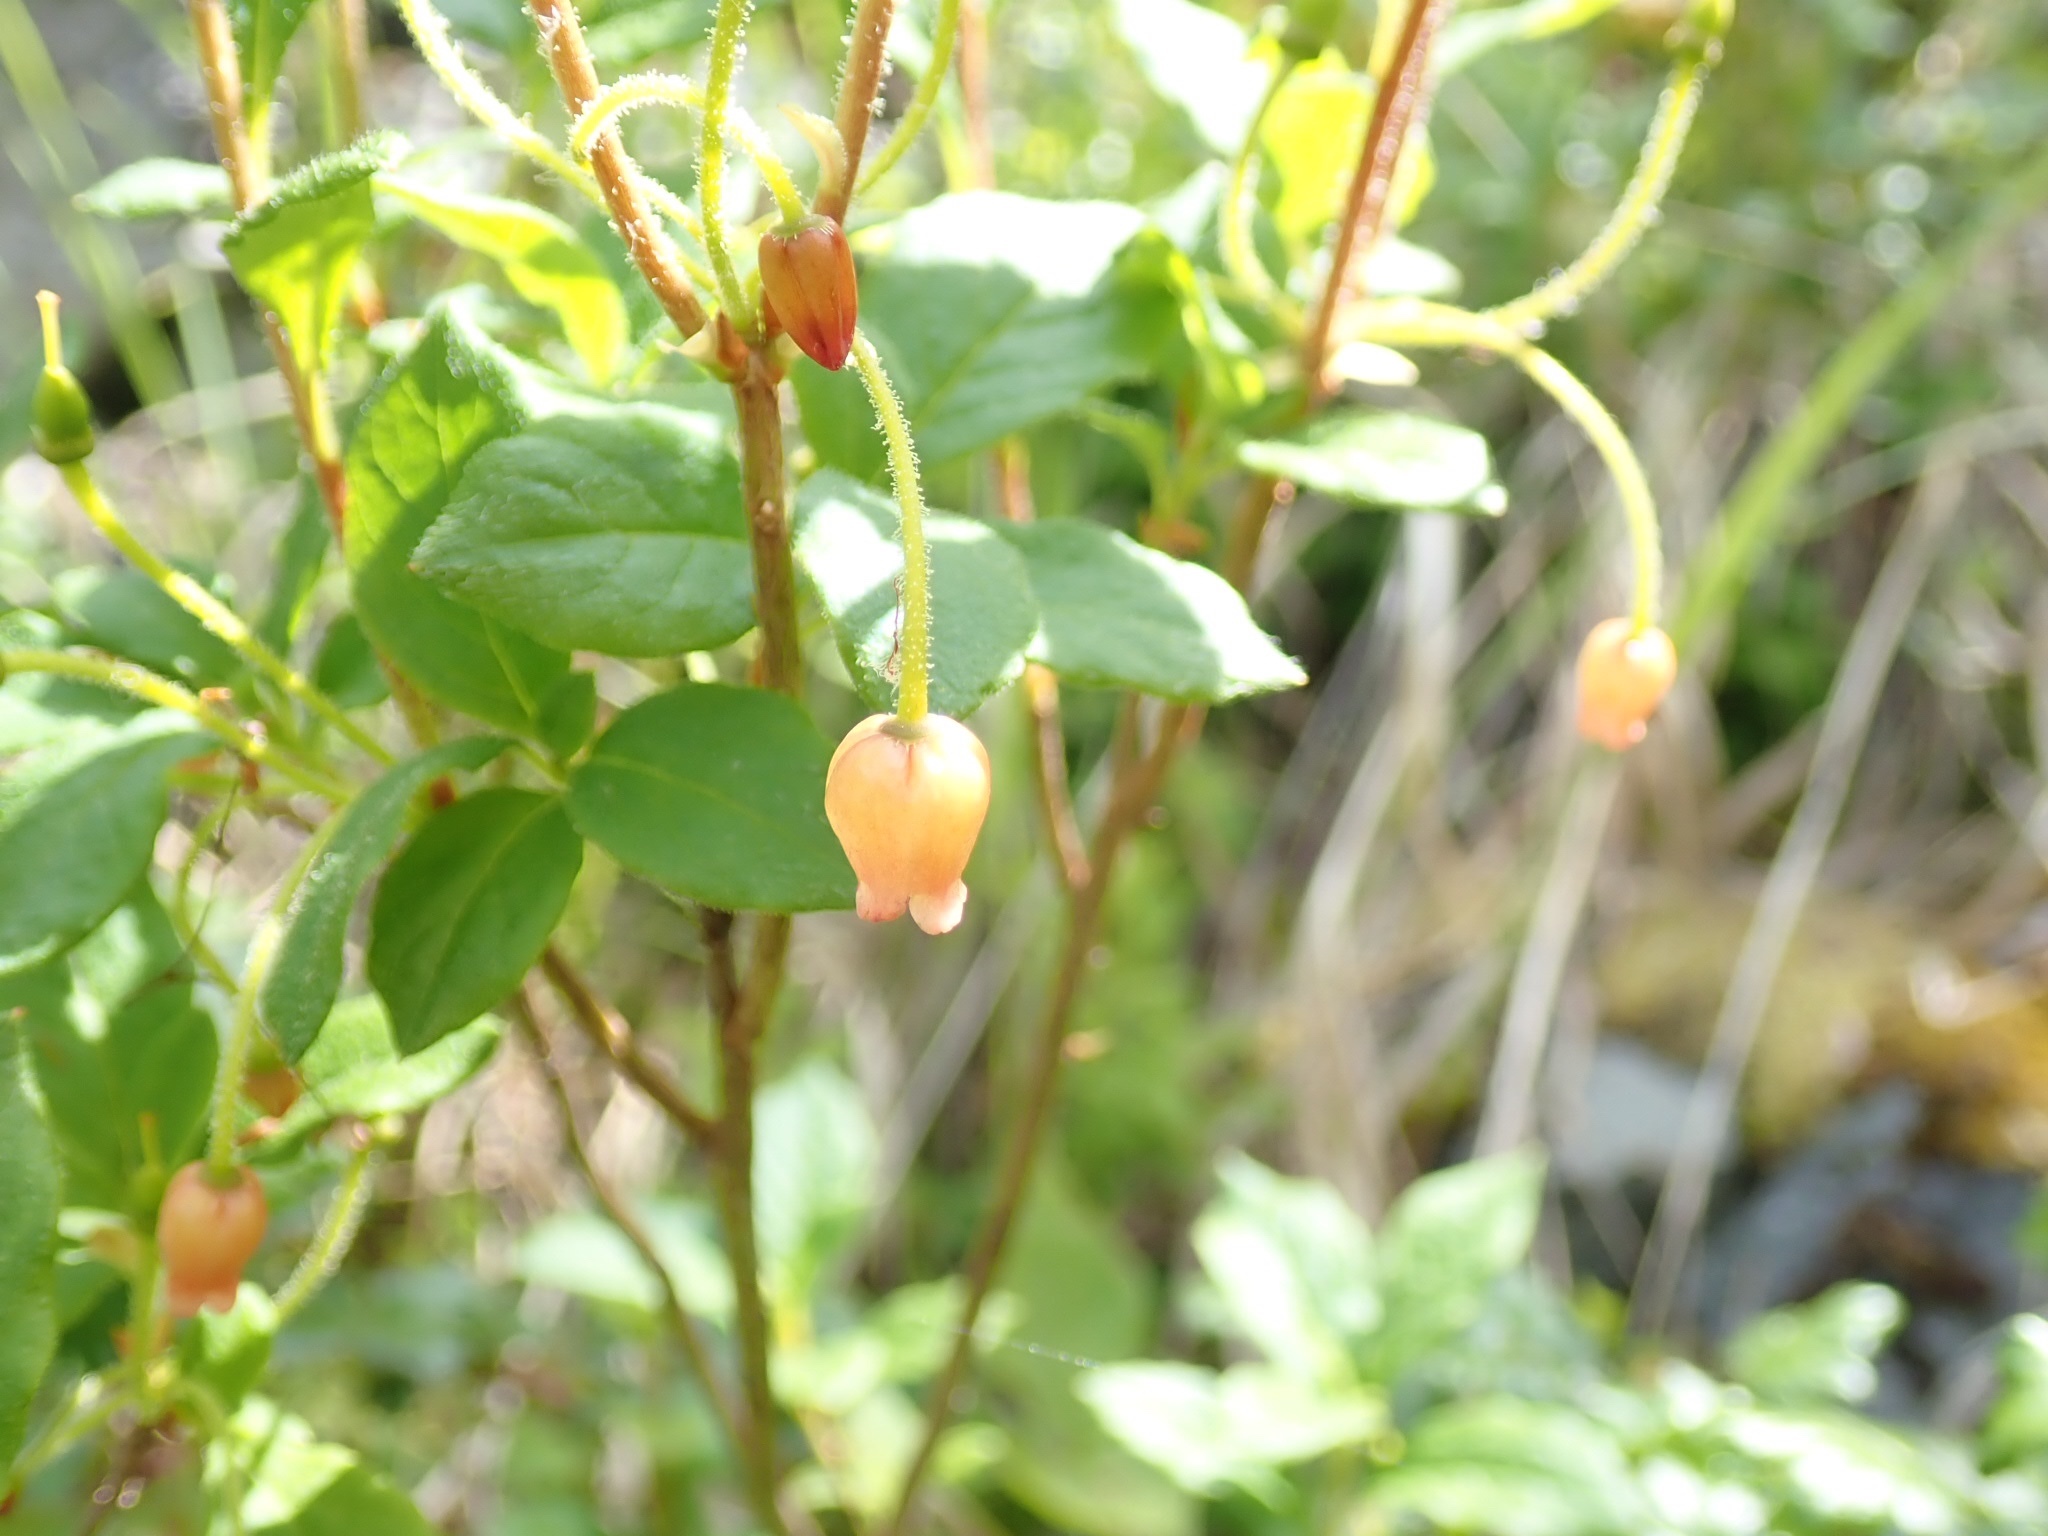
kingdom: Plantae
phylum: Tracheophyta
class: Magnoliopsida
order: Ericales
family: Ericaceae
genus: Rhododendron
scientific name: Rhododendron menziesii
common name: Pacific menziesia
